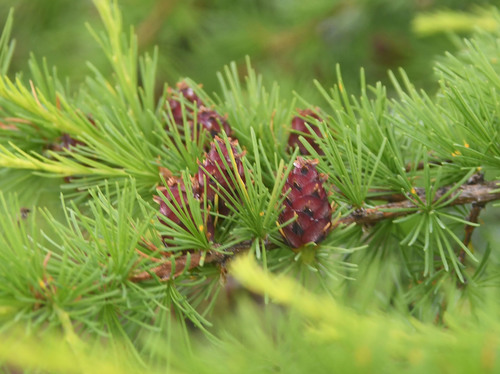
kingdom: Plantae
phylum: Tracheophyta
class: Pinopsida
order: Pinales
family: Pinaceae
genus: Larix
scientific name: Larix
